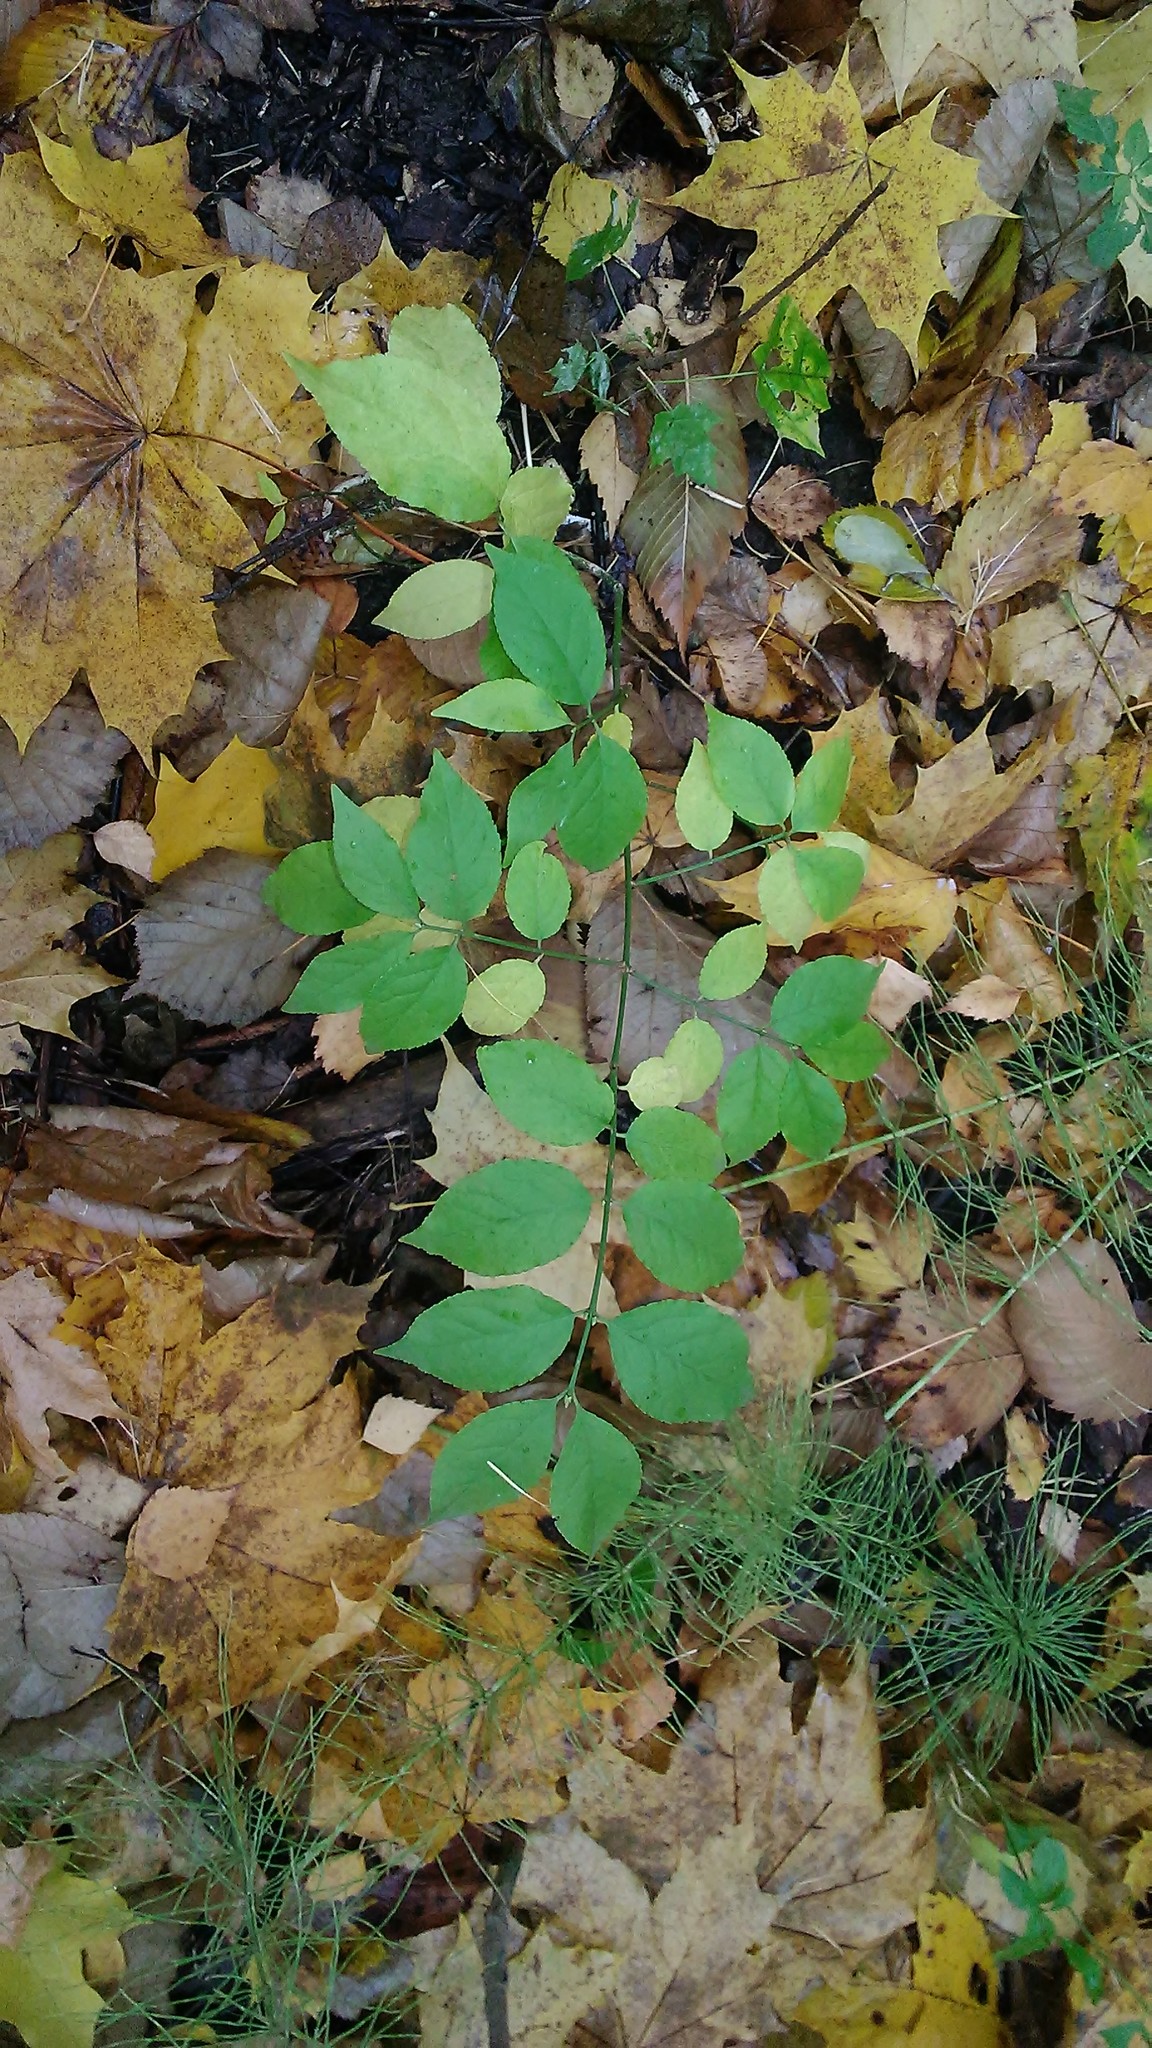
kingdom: Plantae
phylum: Tracheophyta
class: Magnoliopsida
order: Celastrales
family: Celastraceae
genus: Euonymus
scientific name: Euonymus verrucosus
